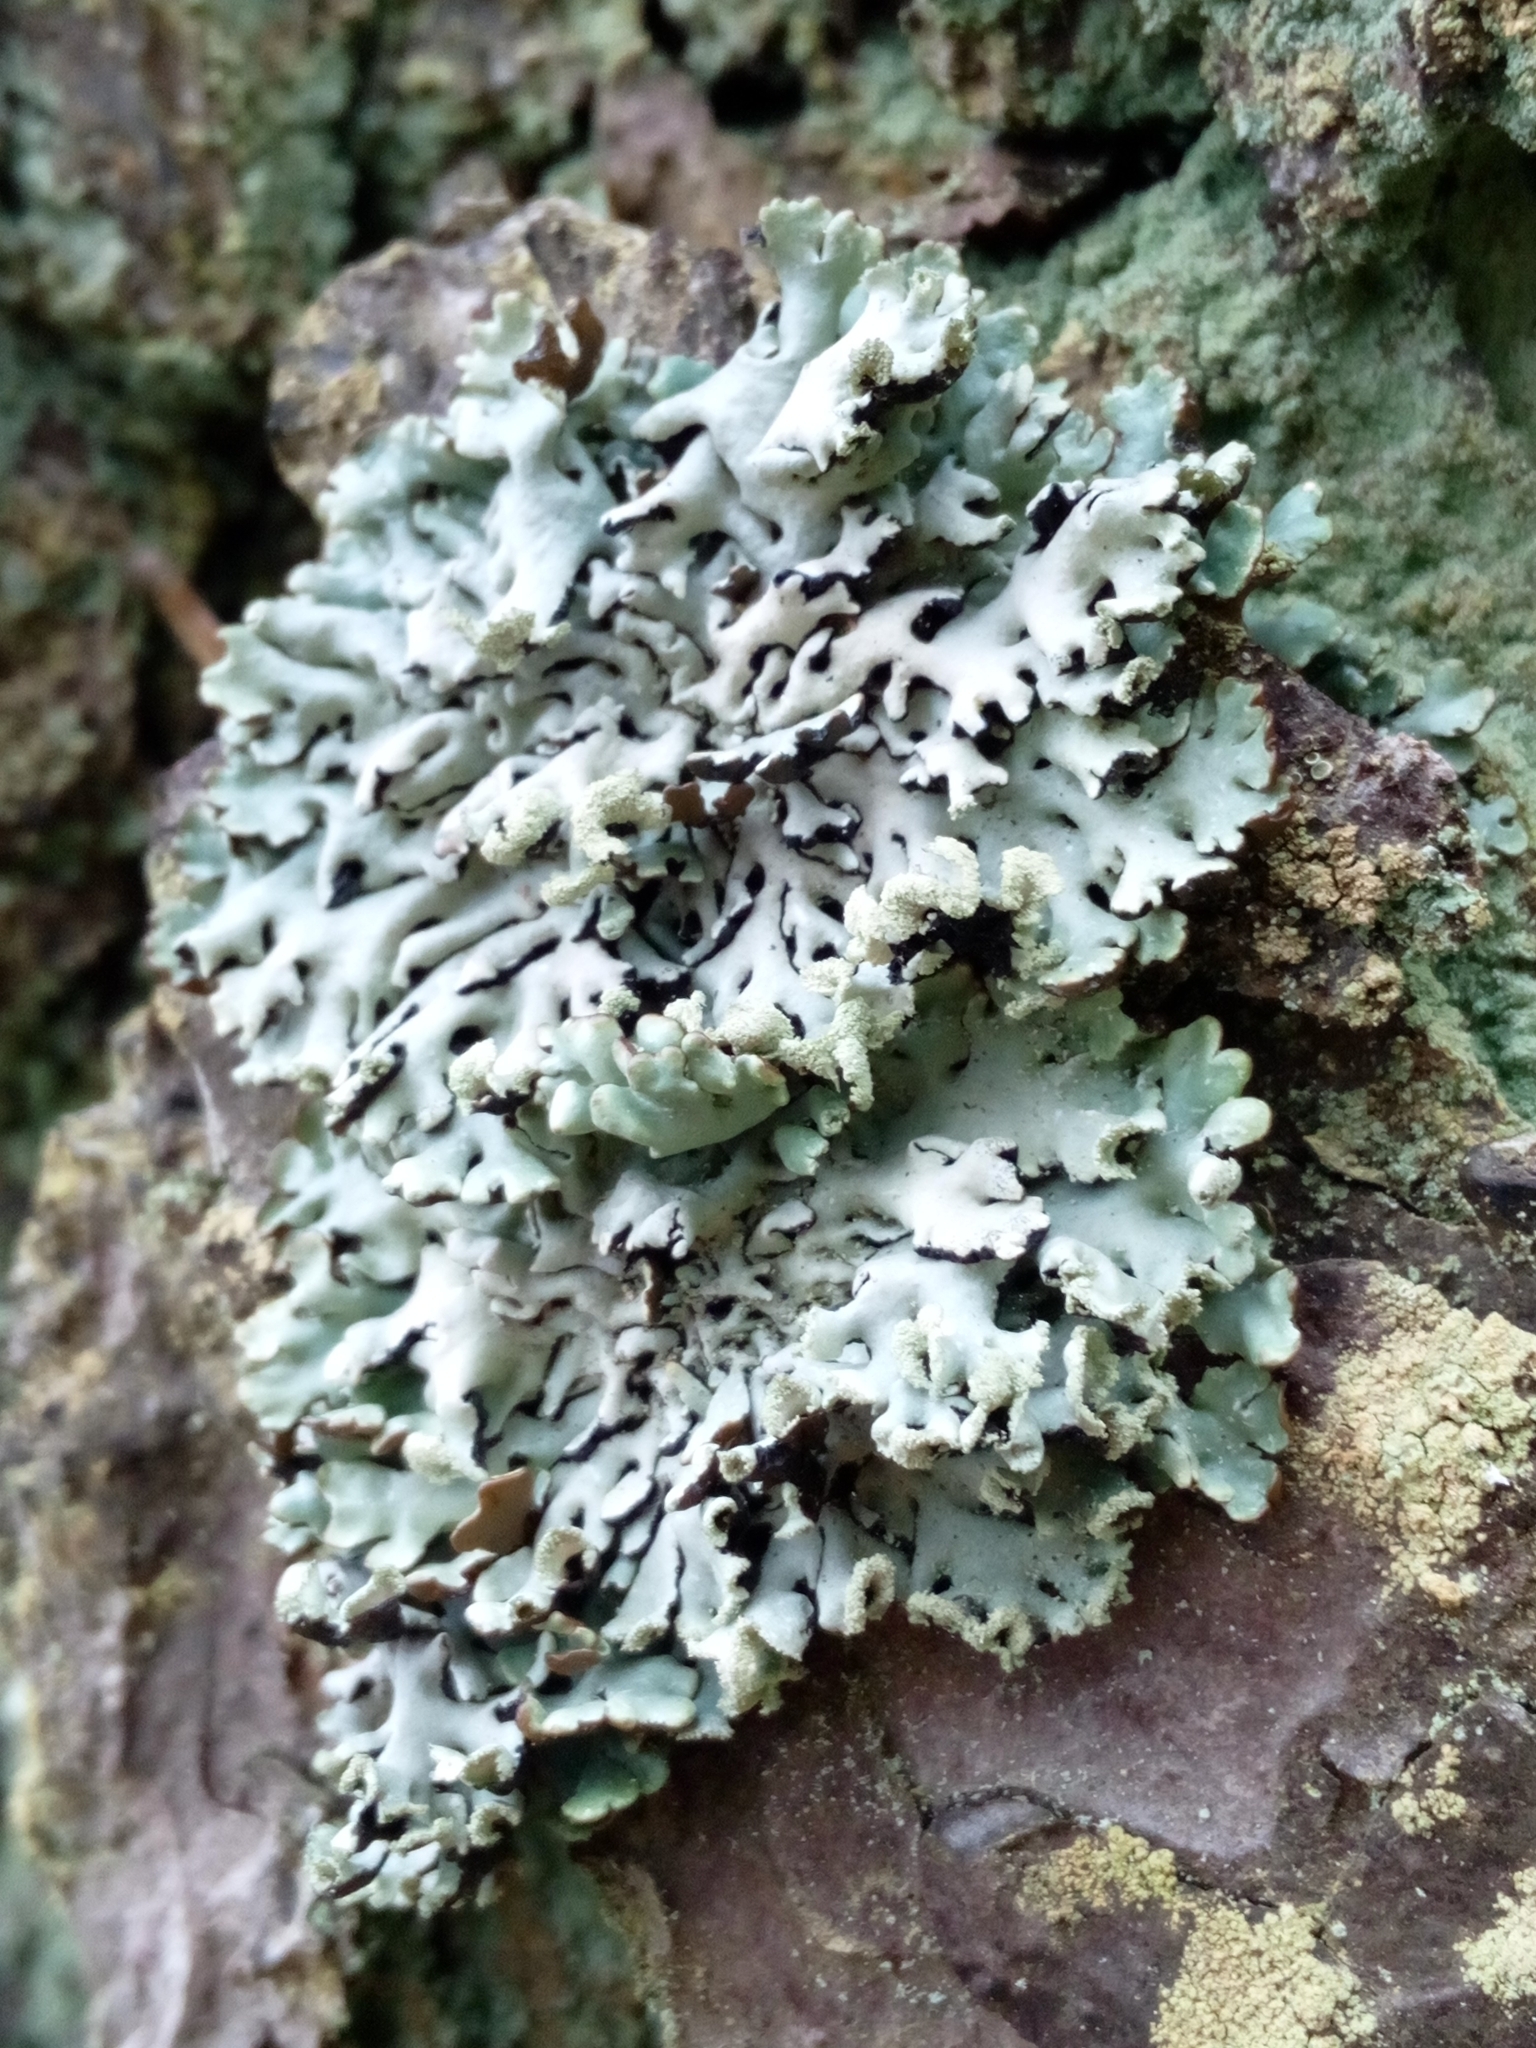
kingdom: Fungi
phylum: Ascomycota
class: Lecanoromycetes
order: Lecanorales
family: Parmeliaceae
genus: Hypogymnia
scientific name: Hypogymnia physodes
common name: Dark crottle
